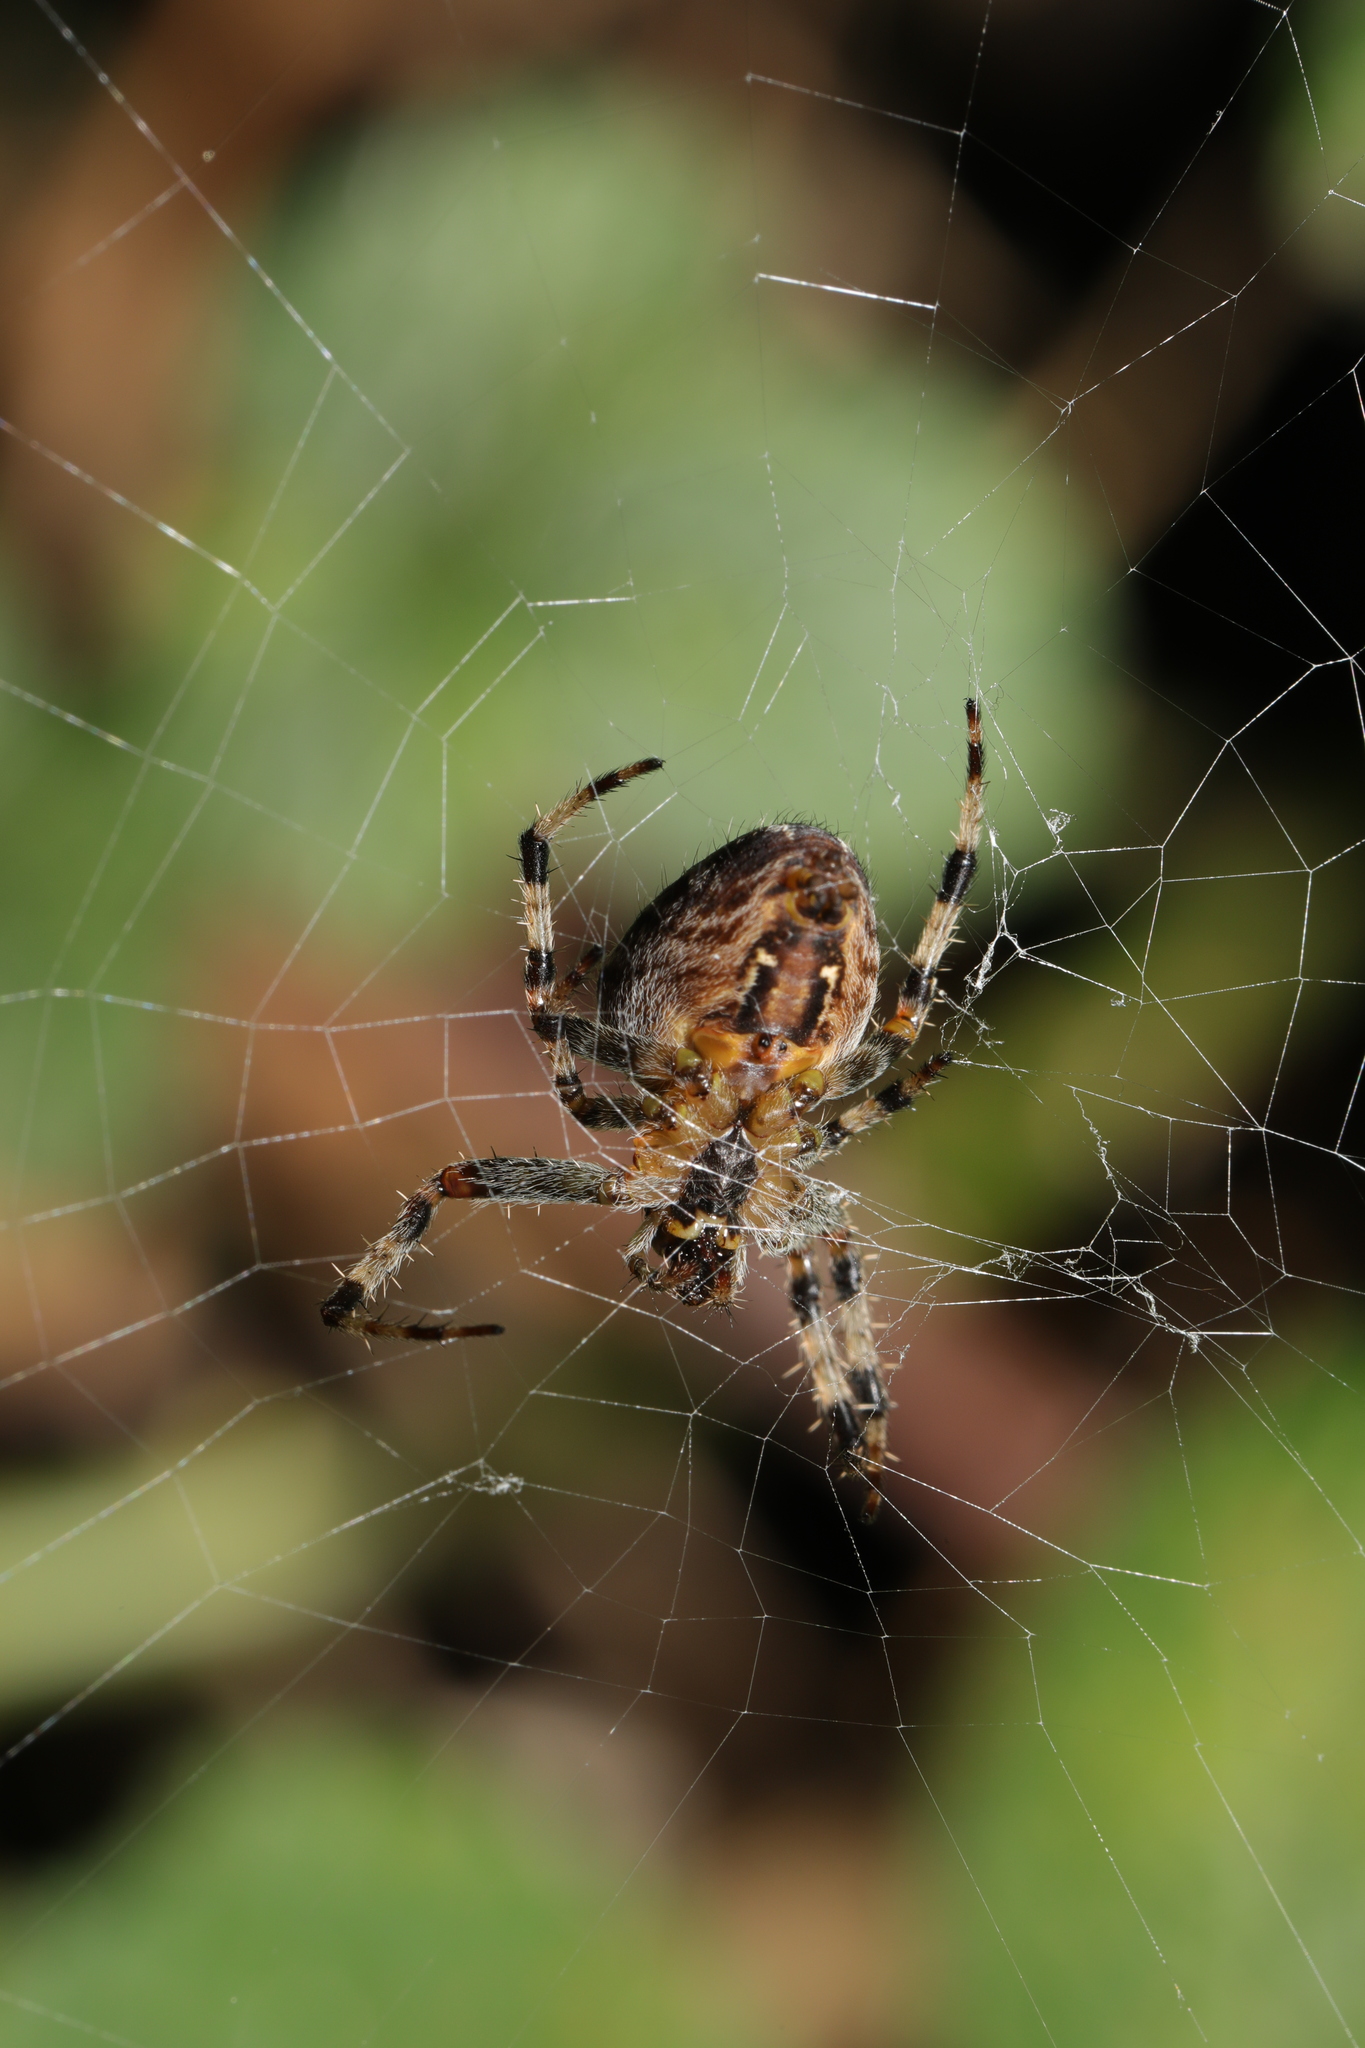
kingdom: Animalia
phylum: Arthropoda
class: Arachnida
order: Araneae
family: Araneidae
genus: Araneus
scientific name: Araneus diadematus
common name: Cross orbweaver
